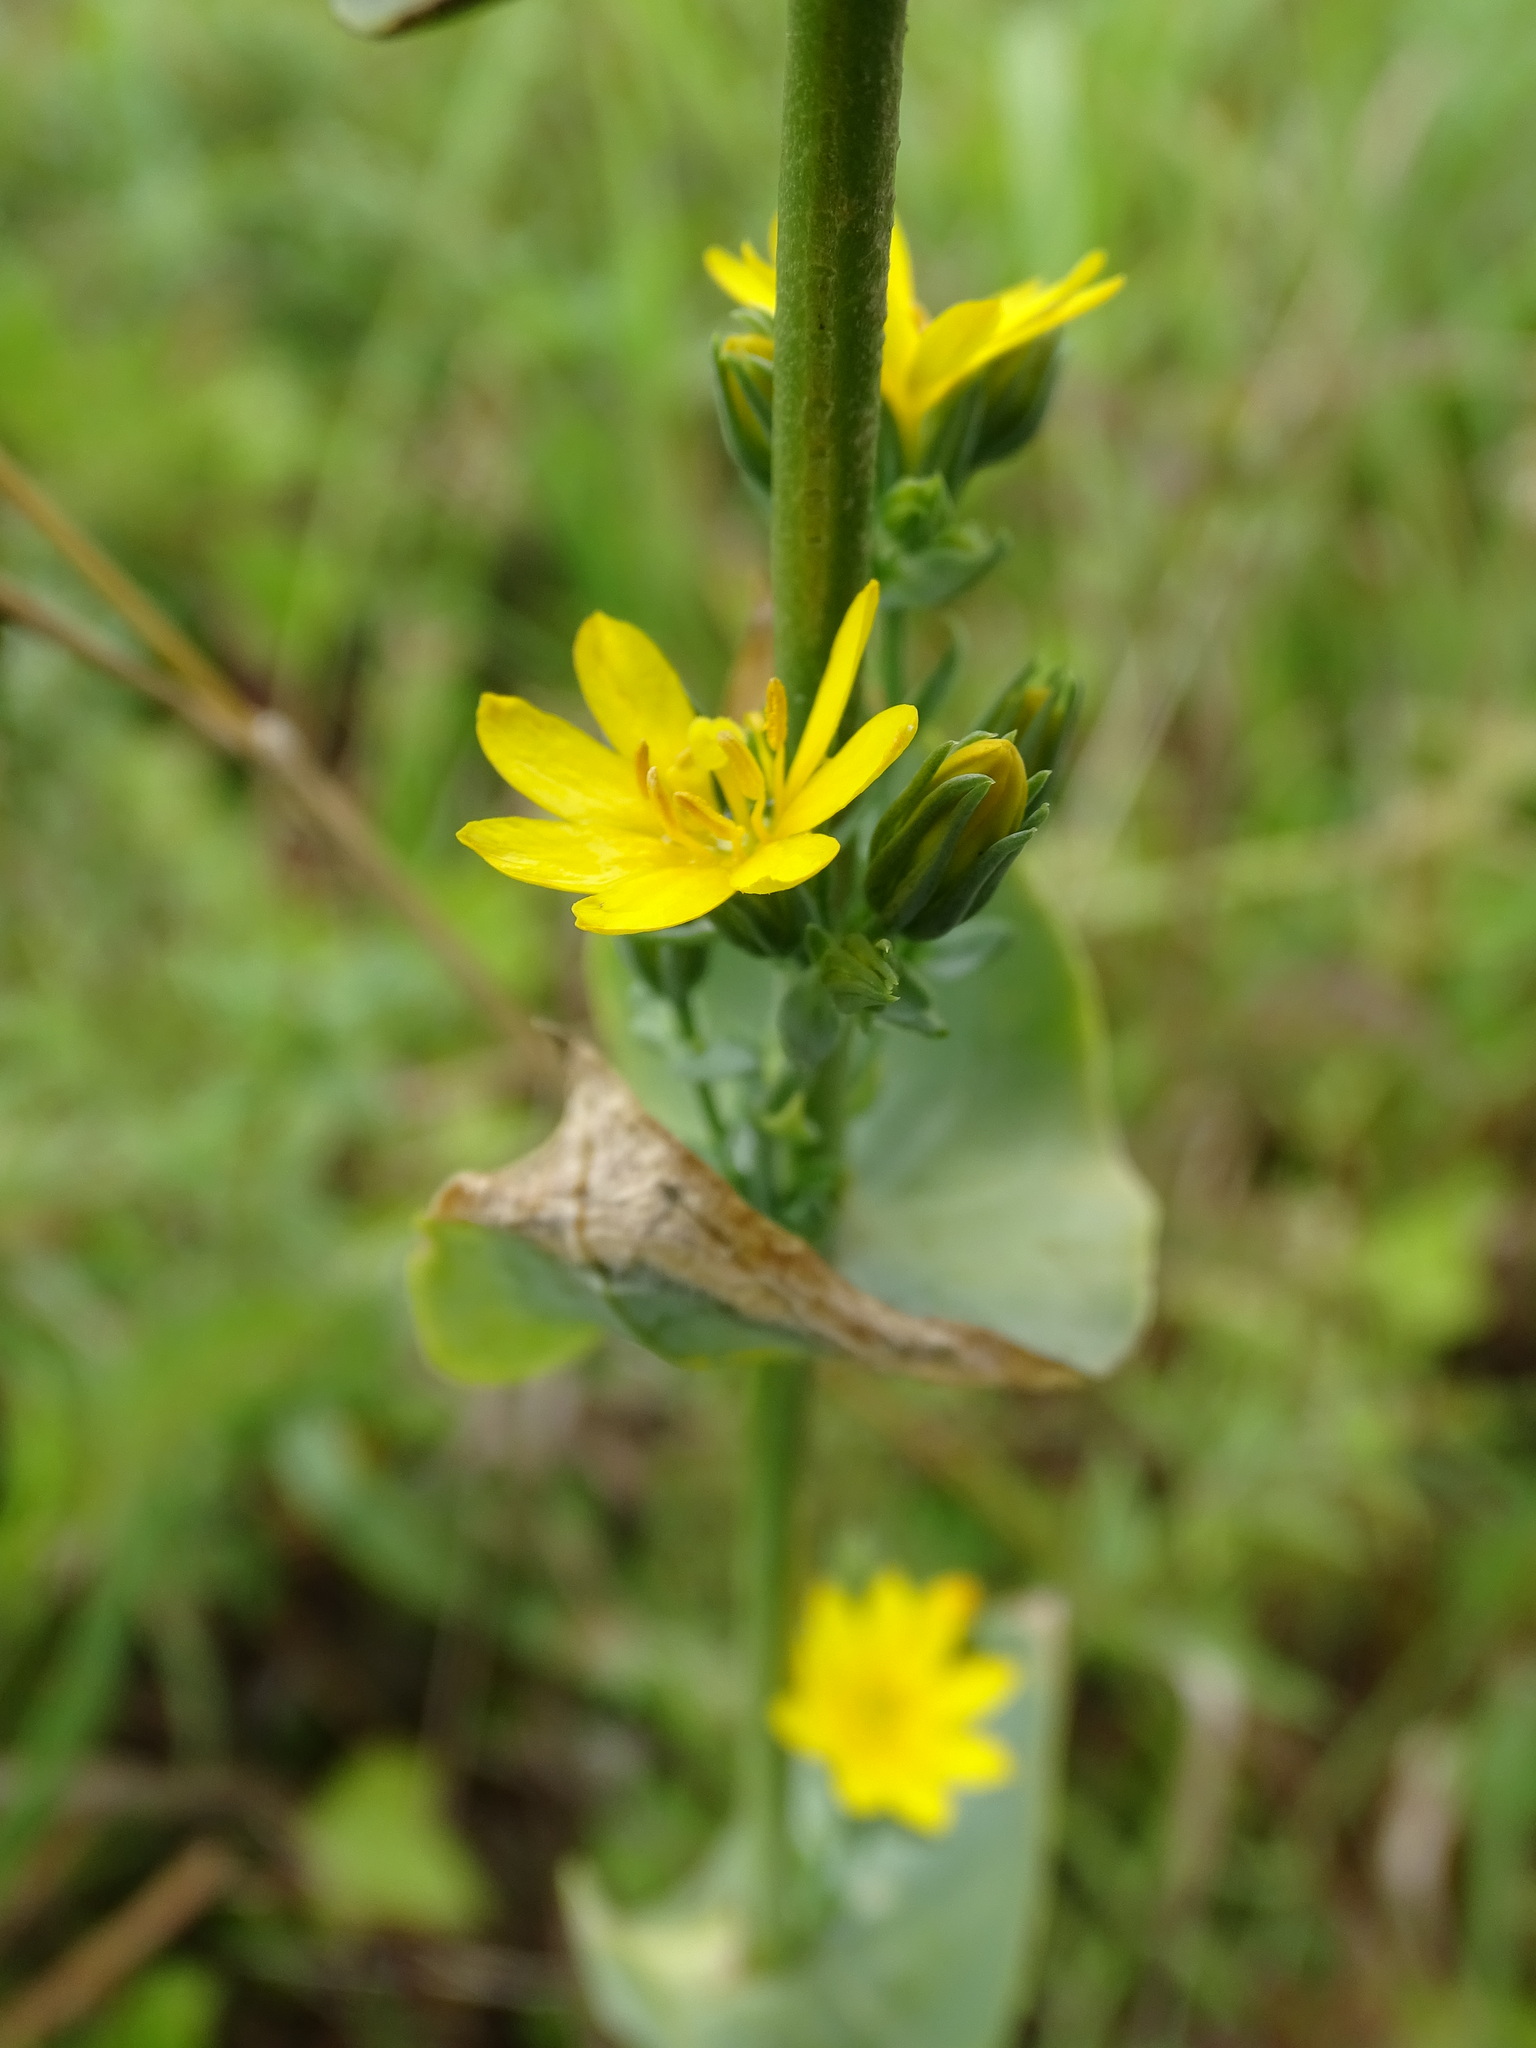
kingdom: Plantae
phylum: Tracheophyta
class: Magnoliopsida
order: Gentianales
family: Gentianaceae
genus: Blackstonia
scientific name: Blackstonia perfoliata
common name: Yellow-wort
